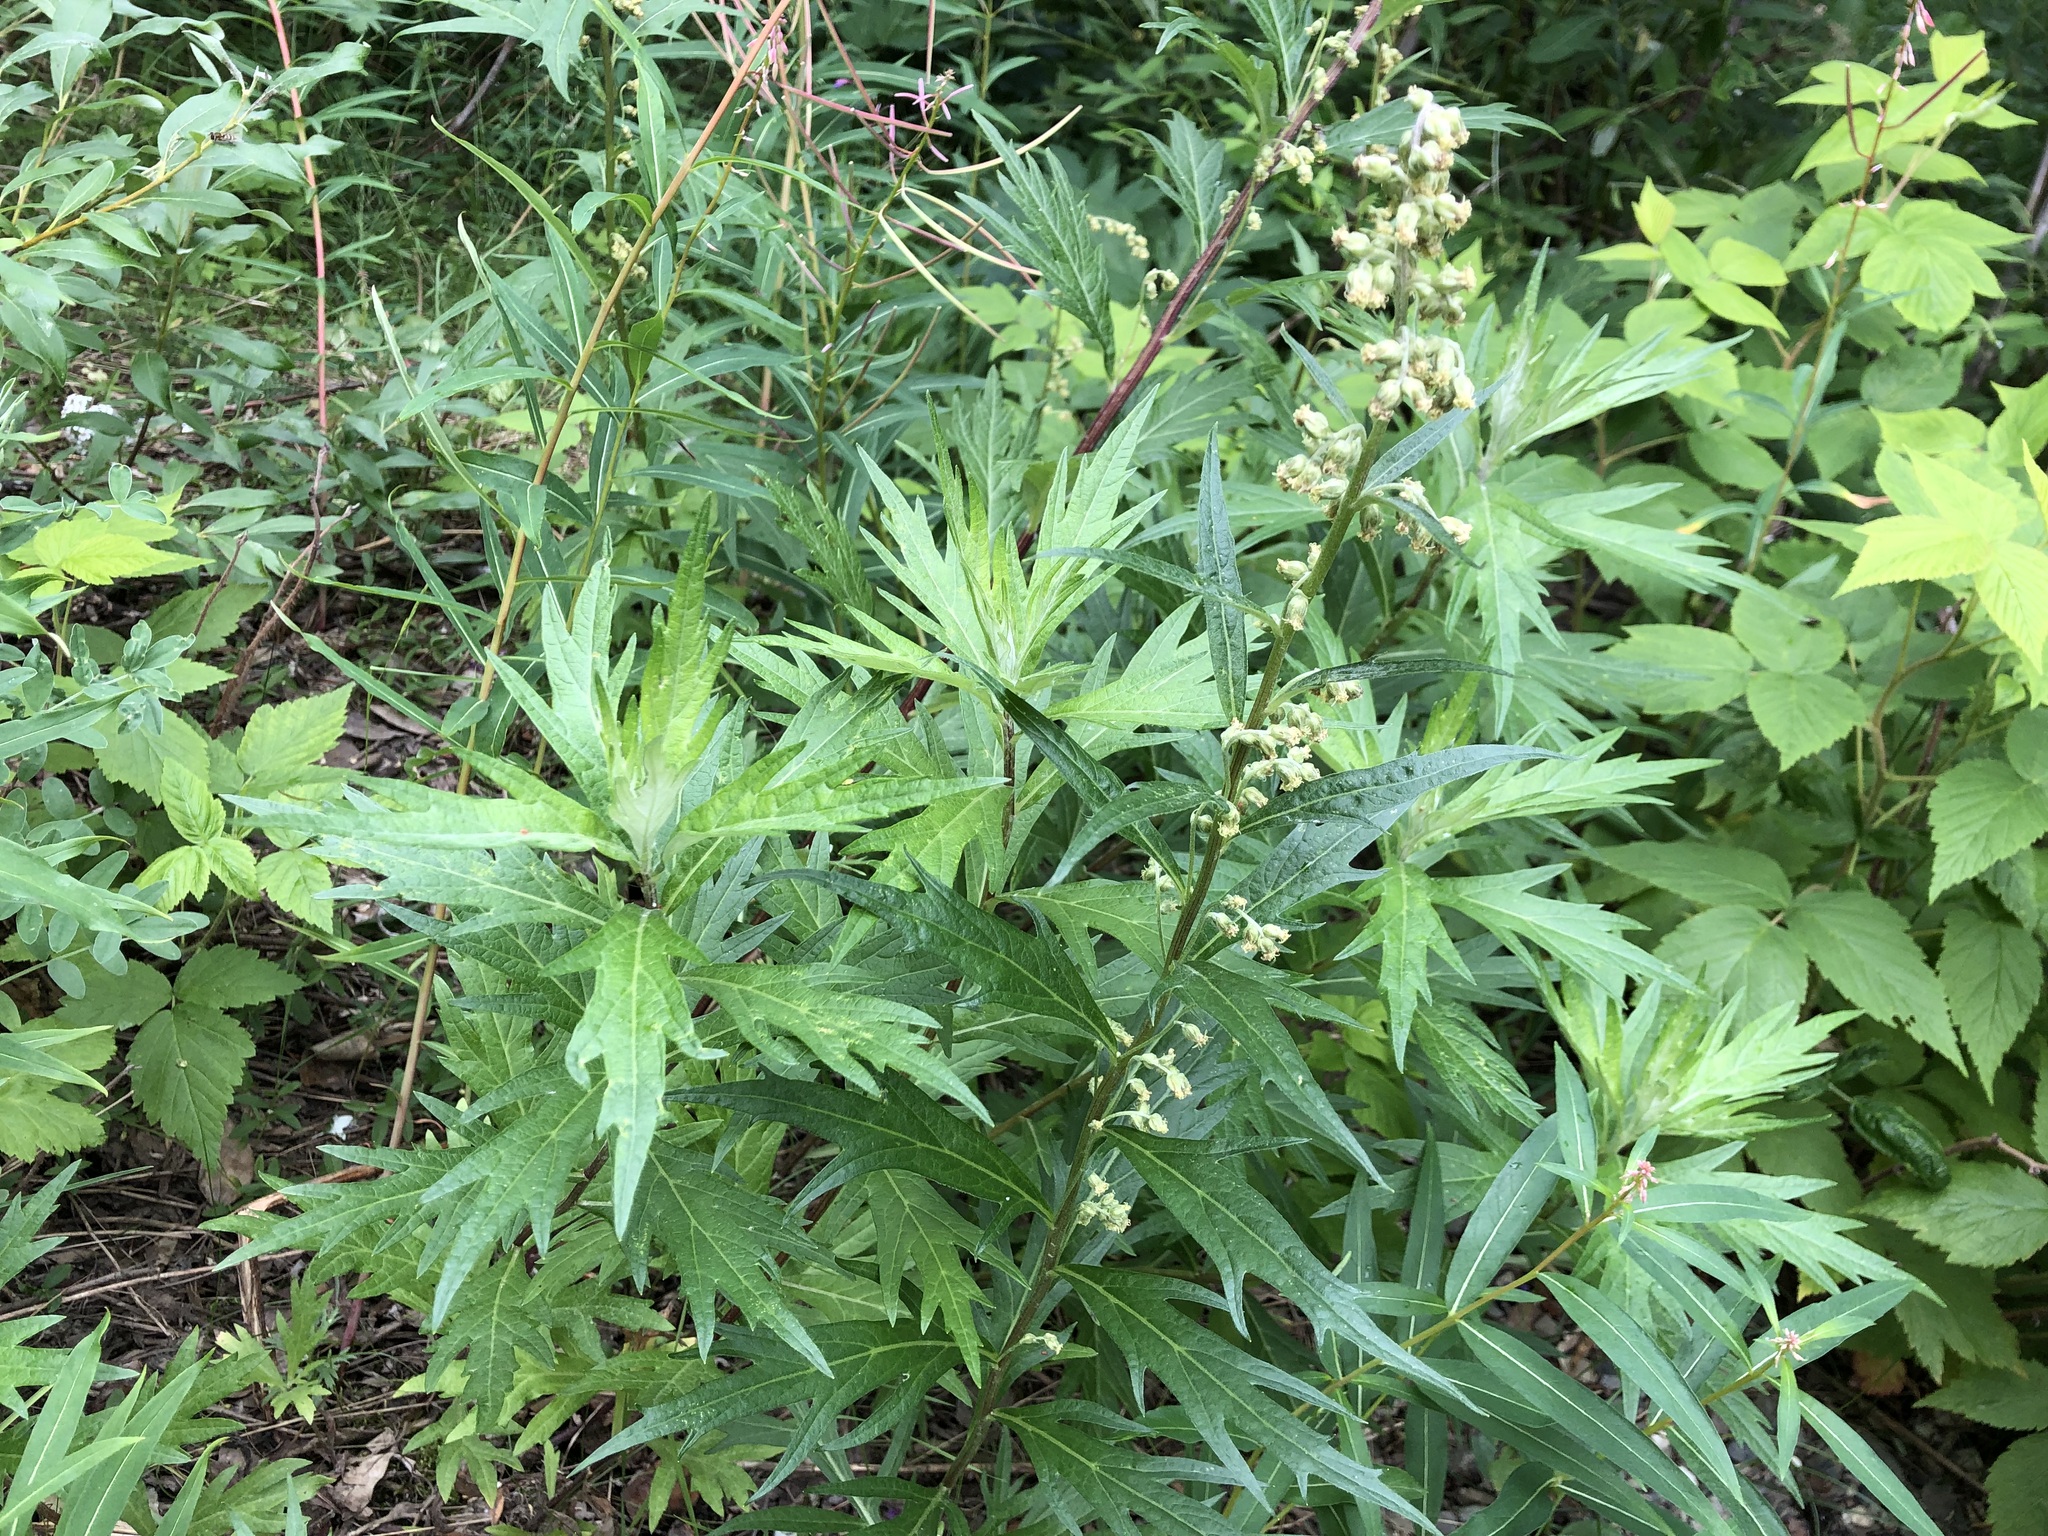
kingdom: Plantae
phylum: Tracheophyta
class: Magnoliopsida
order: Asterales
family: Asteraceae
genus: Artemisia
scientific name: Artemisia tilesii
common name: Aleutian mugwort
